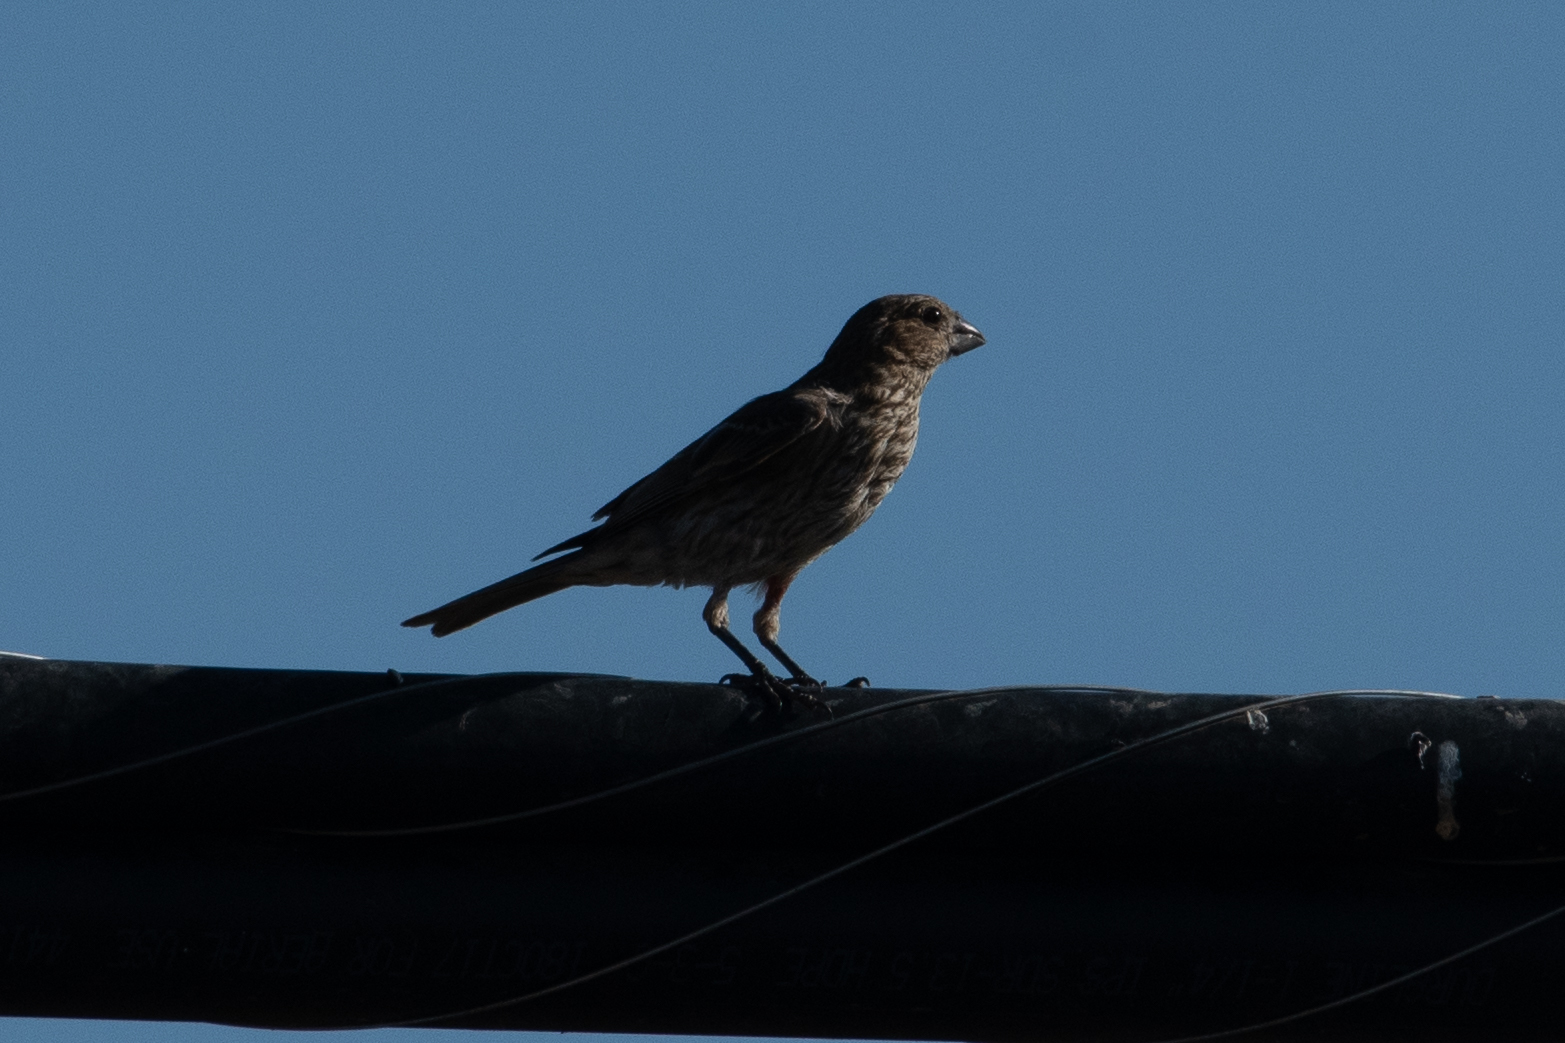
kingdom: Animalia
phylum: Chordata
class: Aves
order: Passeriformes
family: Fringillidae
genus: Haemorhous
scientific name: Haemorhous mexicanus
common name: House finch
